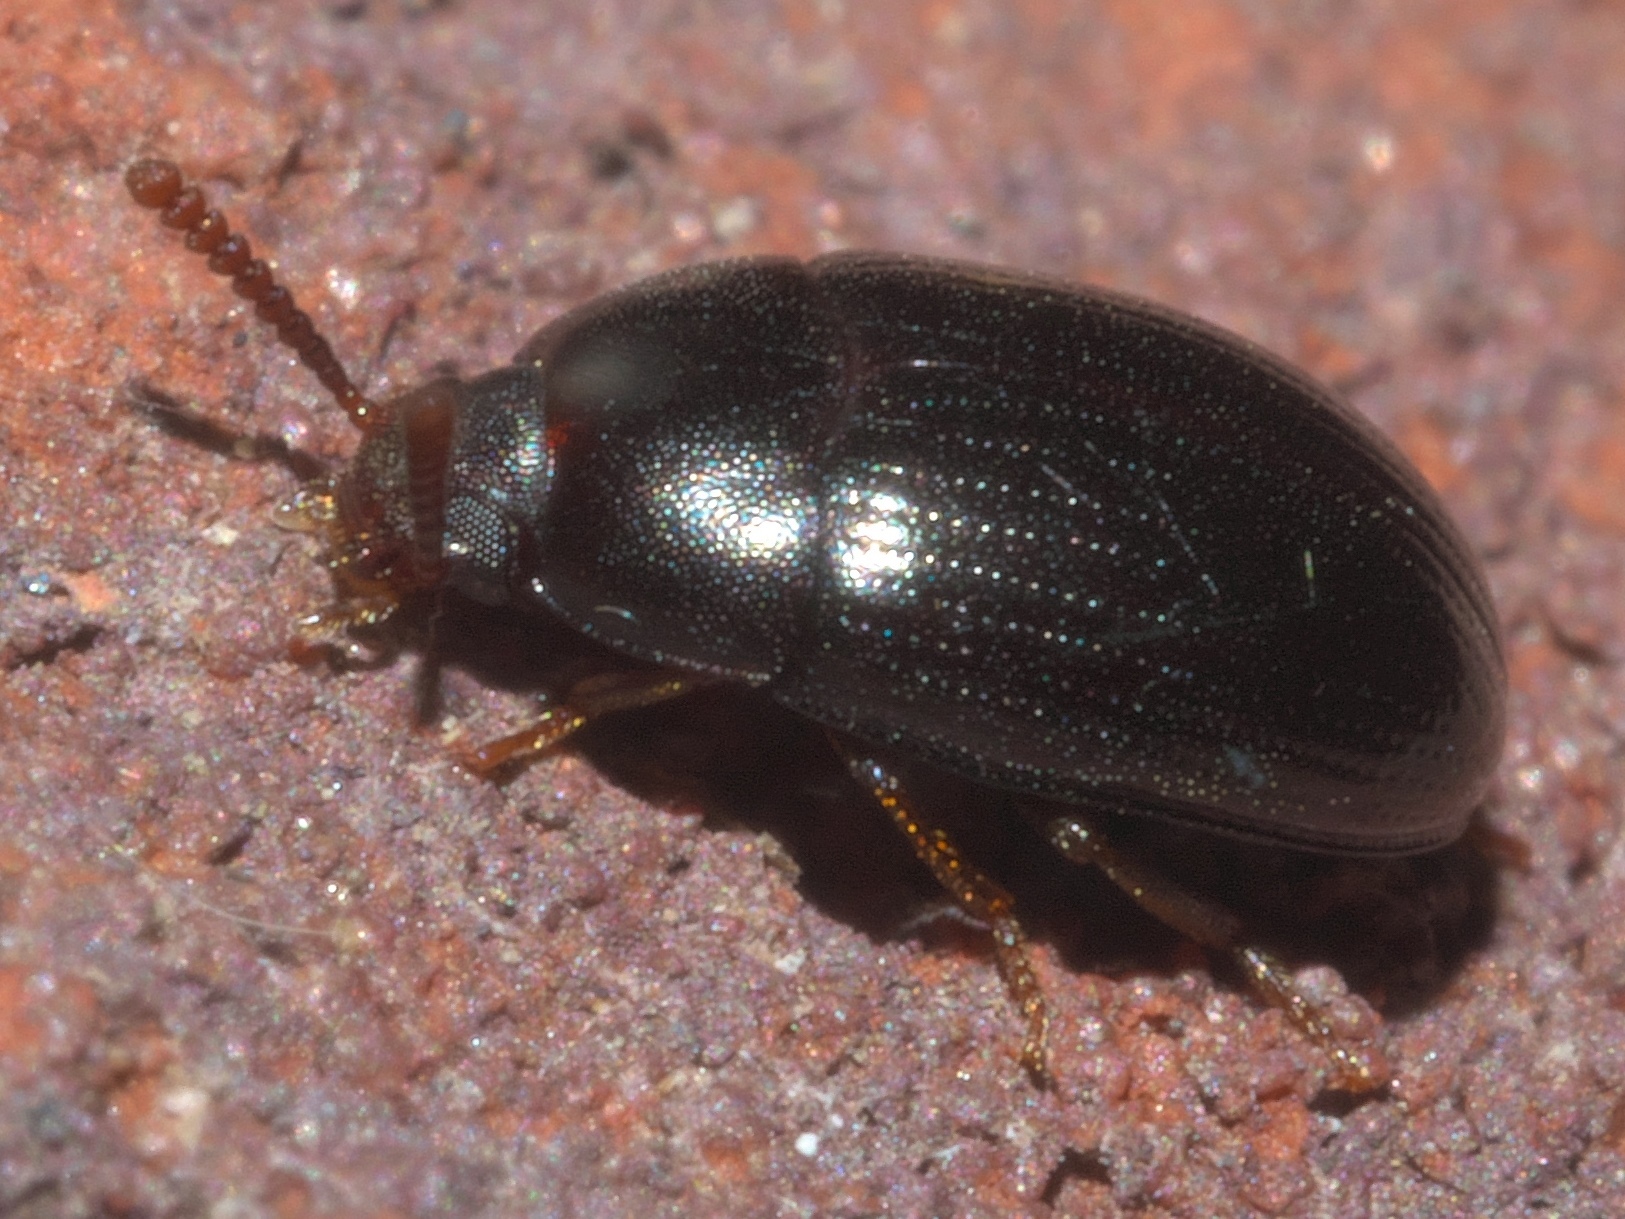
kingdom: Animalia
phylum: Arthropoda
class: Insecta
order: Coleoptera
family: Tenebrionidae
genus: Platydema
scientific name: Platydema micans
